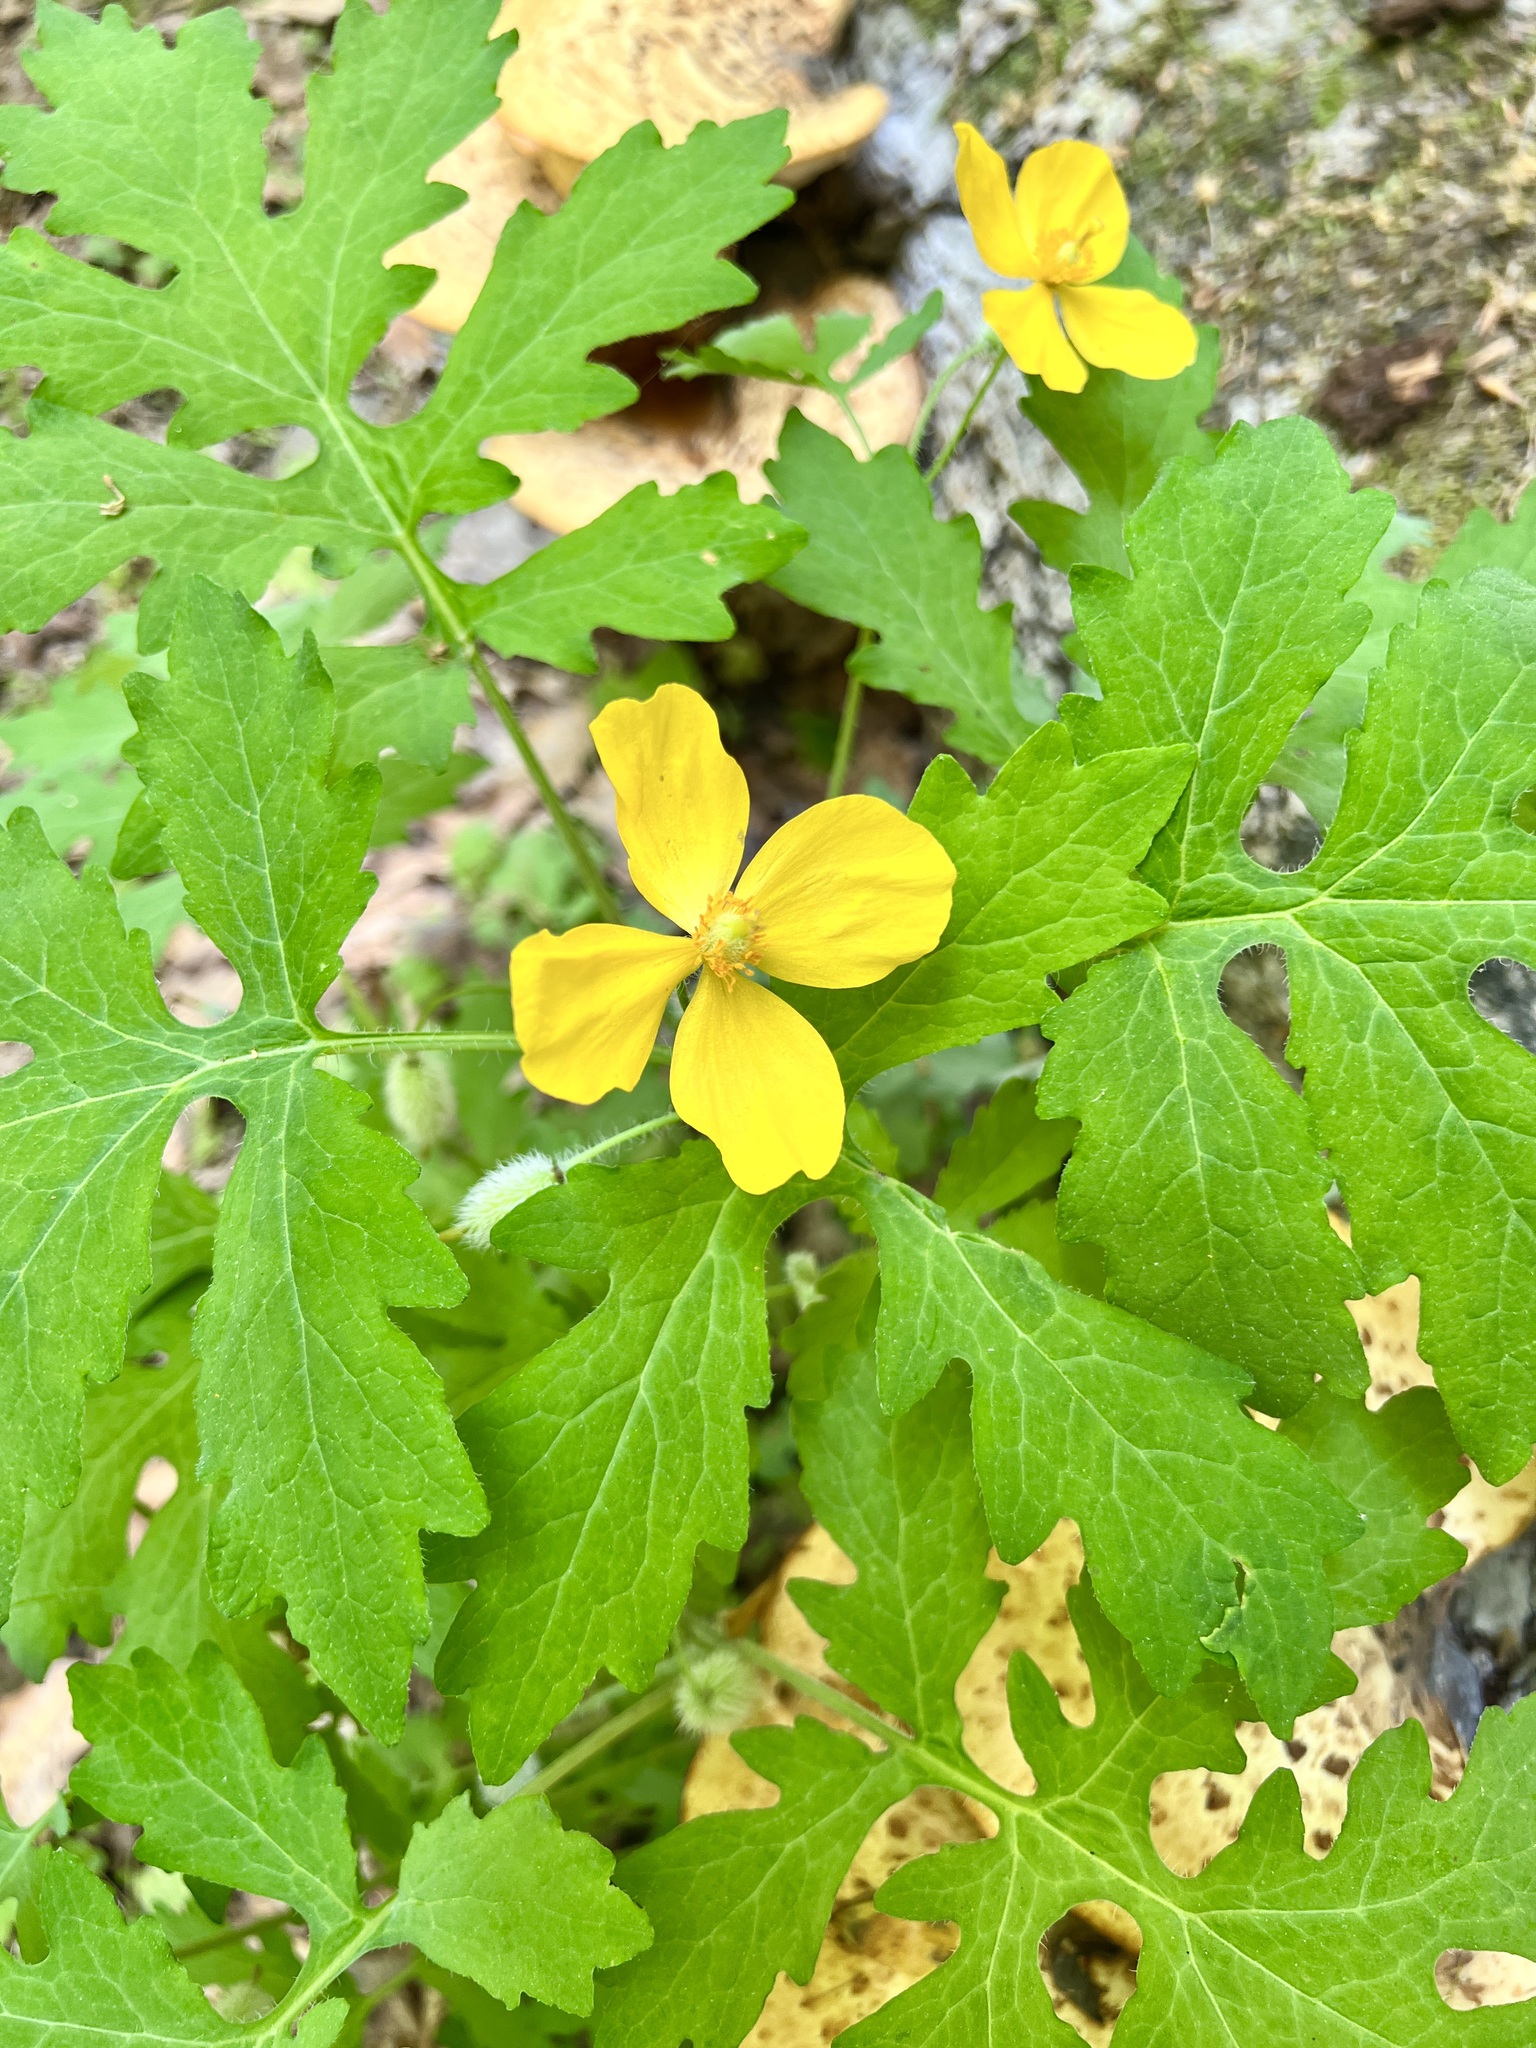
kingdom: Plantae
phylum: Tracheophyta
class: Magnoliopsida
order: Ranunculales
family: Papaveraceae
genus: Stylophorum
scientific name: Stylophorum diphyllum
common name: Celandine poppy
